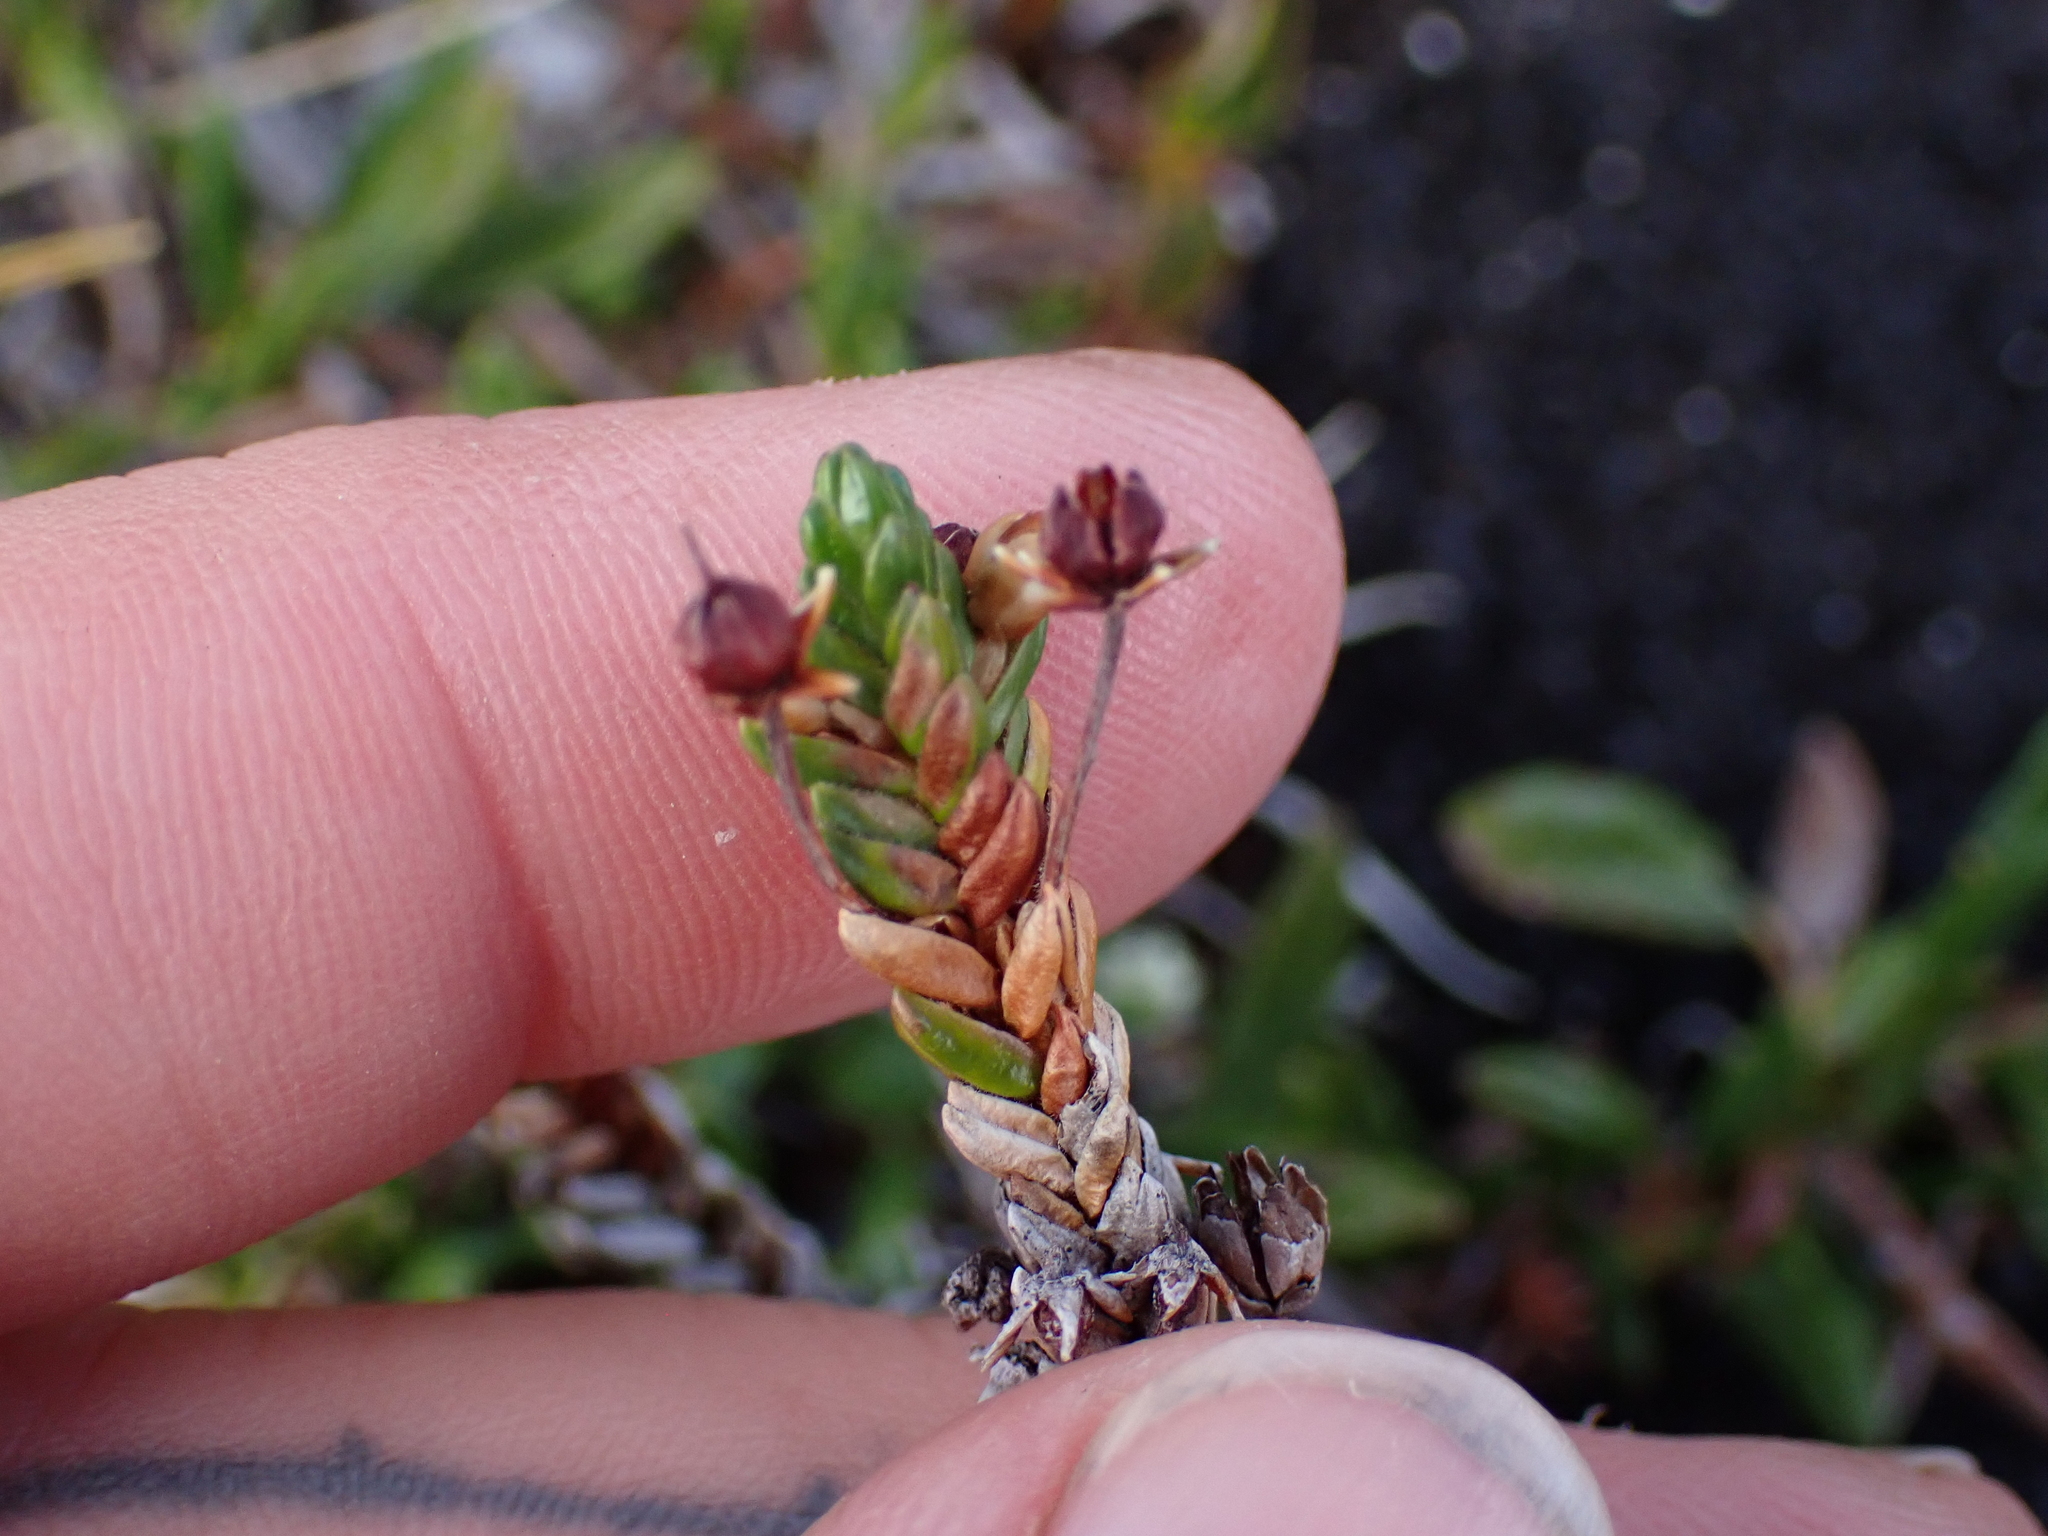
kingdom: Plantae
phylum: Tracheophyta
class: Magnoliopsida
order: Ericales
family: Ericaceae
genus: Cassiope
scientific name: Cassiope tetragona
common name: Arctic bell heather
